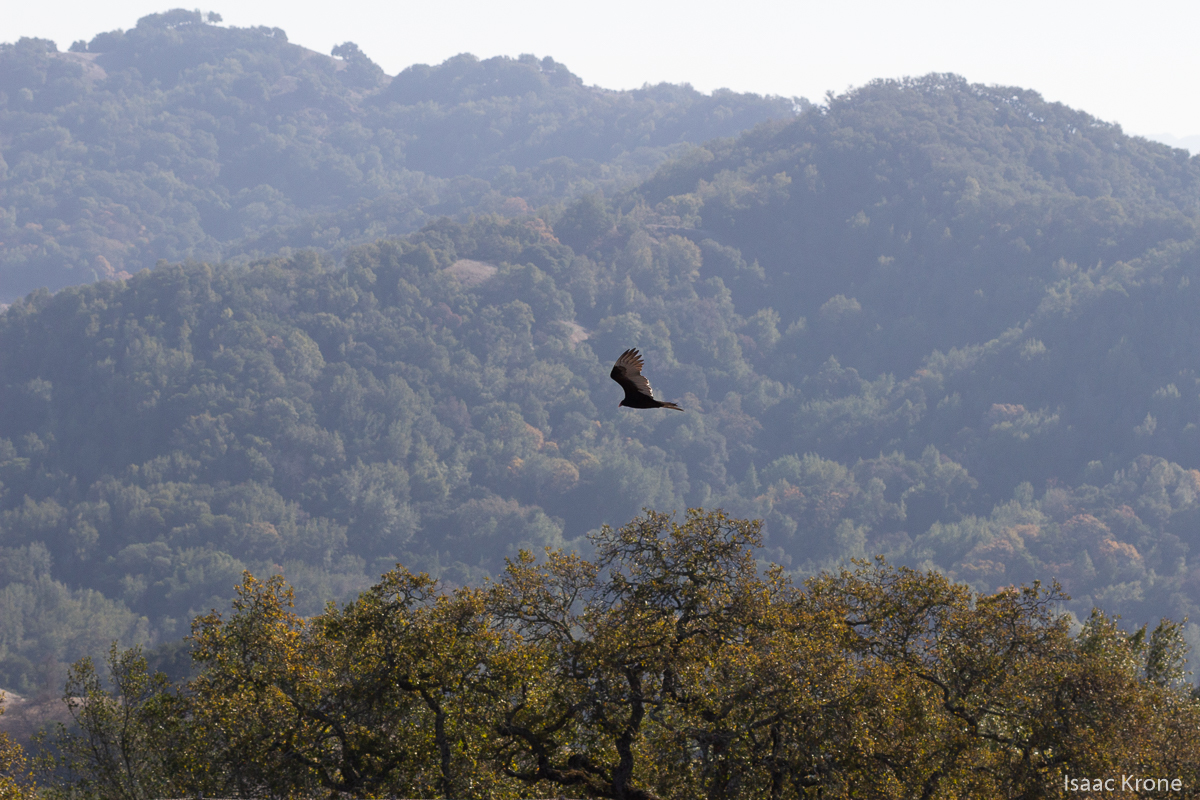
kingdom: Animalia
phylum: Chordata
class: Aves
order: Accipitriformes
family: Cathartidae
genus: Cathartes
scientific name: Cathartes aura
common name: Turkey vulture
